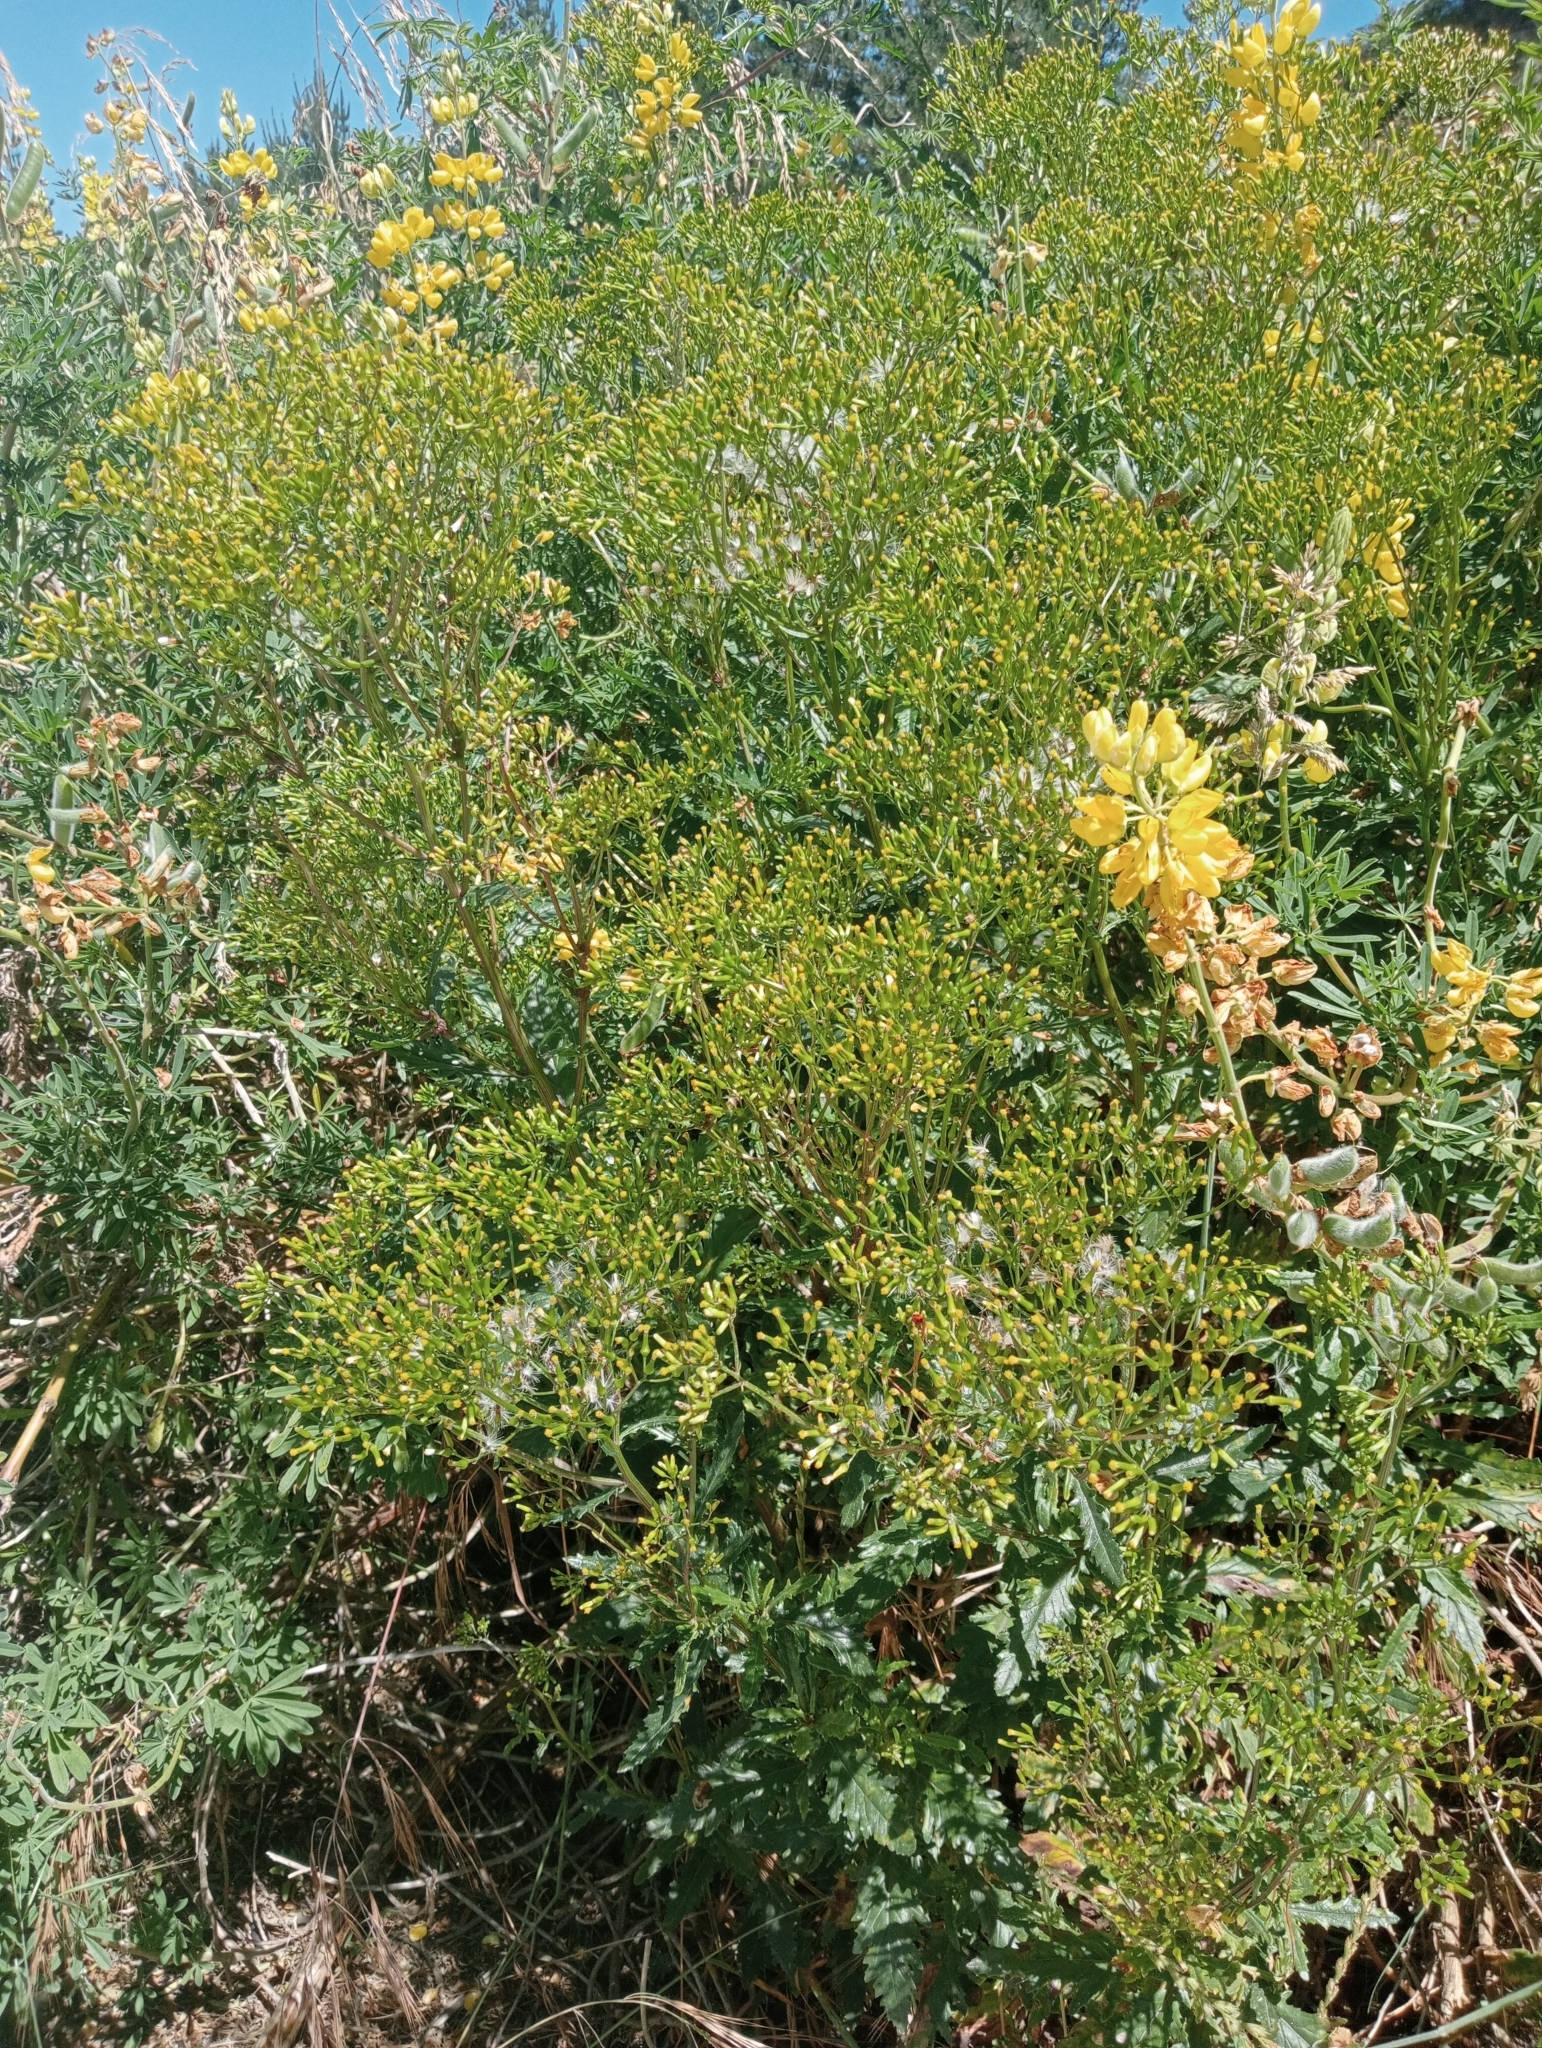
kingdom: Plantae
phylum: Tracheophyta
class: Magnoliopsida
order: Asterales
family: Asteraceae
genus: Senecio
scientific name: Senecio biserratus
